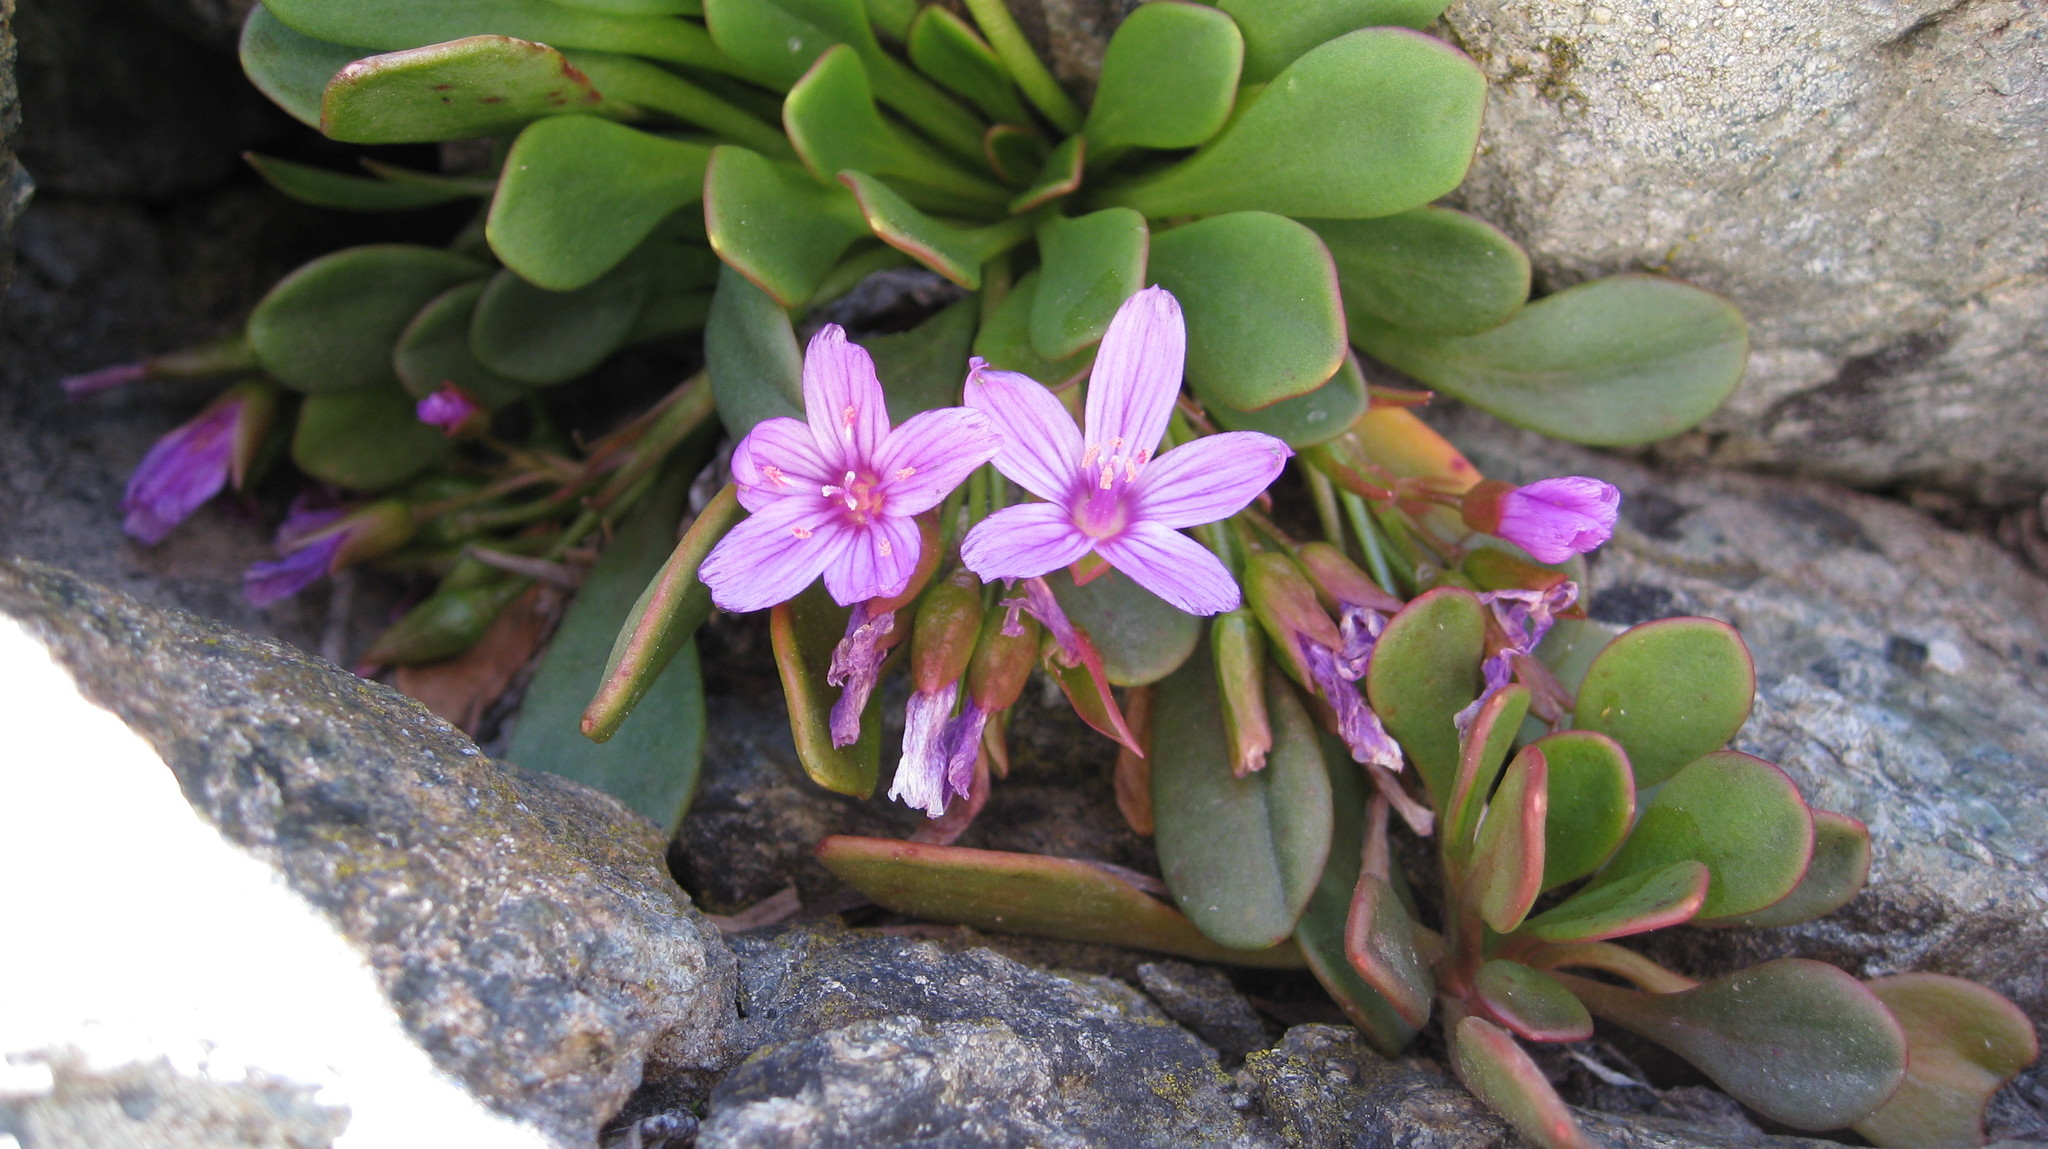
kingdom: Plantae
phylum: Tracheophyta
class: Magnoliopsida
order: Caryophyllales
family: Montiaceae
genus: Claytonia
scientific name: Claytonia megarhiza
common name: Alpine spring beauty
